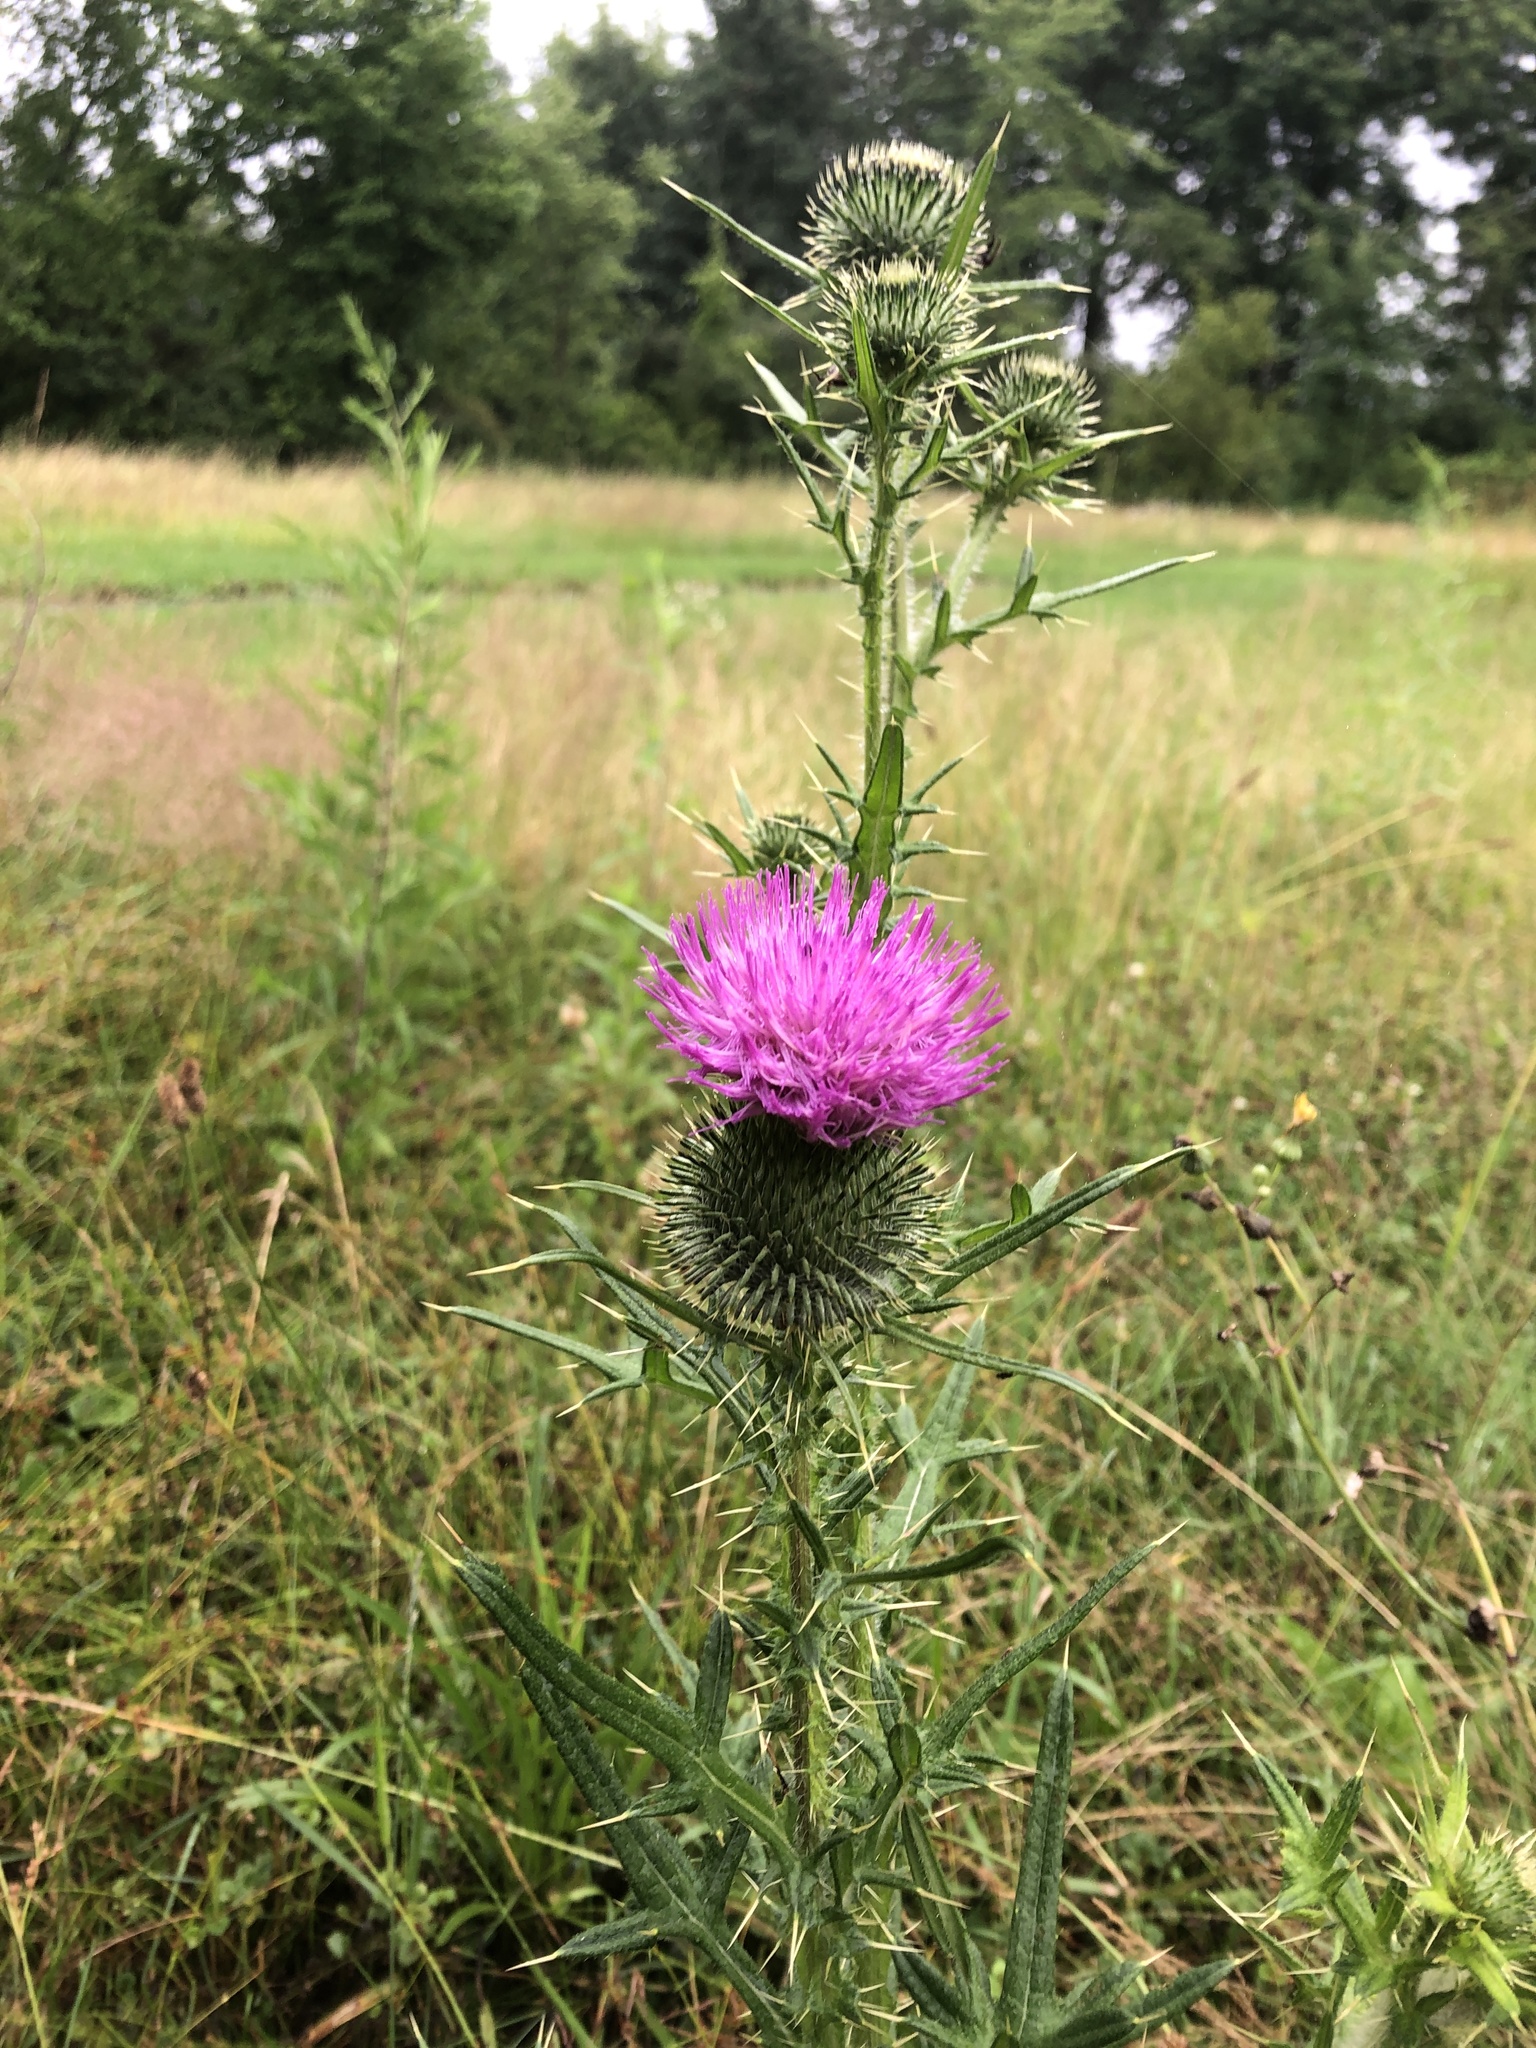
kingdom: Plantae
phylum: Tracheophyta
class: Magnoliopsida
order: Asterales
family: Asteraceae
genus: Cirsium
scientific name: Cirsium vulgare
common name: Bull thistle
